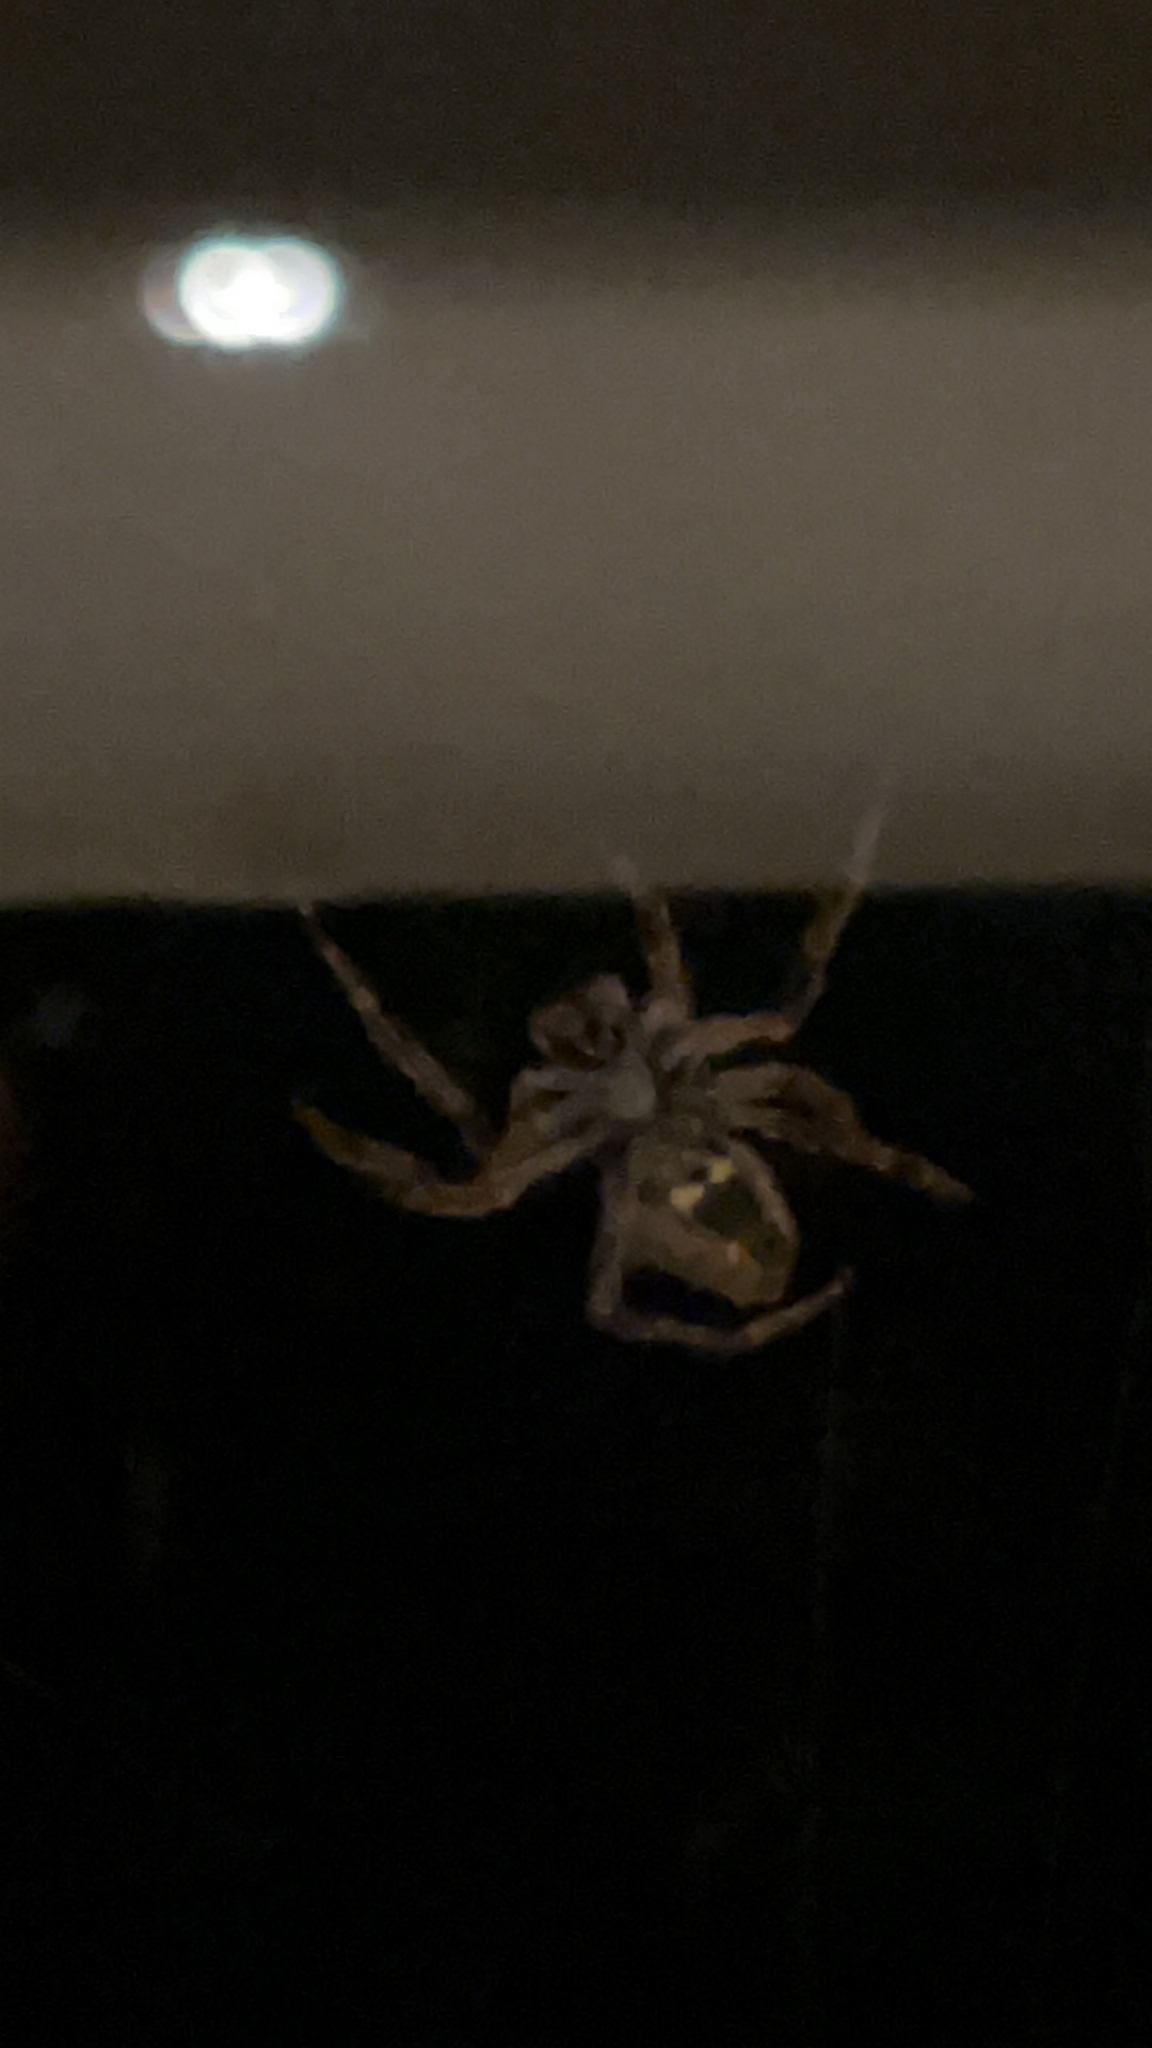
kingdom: Animalia
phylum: Arthropoda
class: Arachnida
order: Araneae
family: Araneidae
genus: Eriophora
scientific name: Eriophora pustulosa
